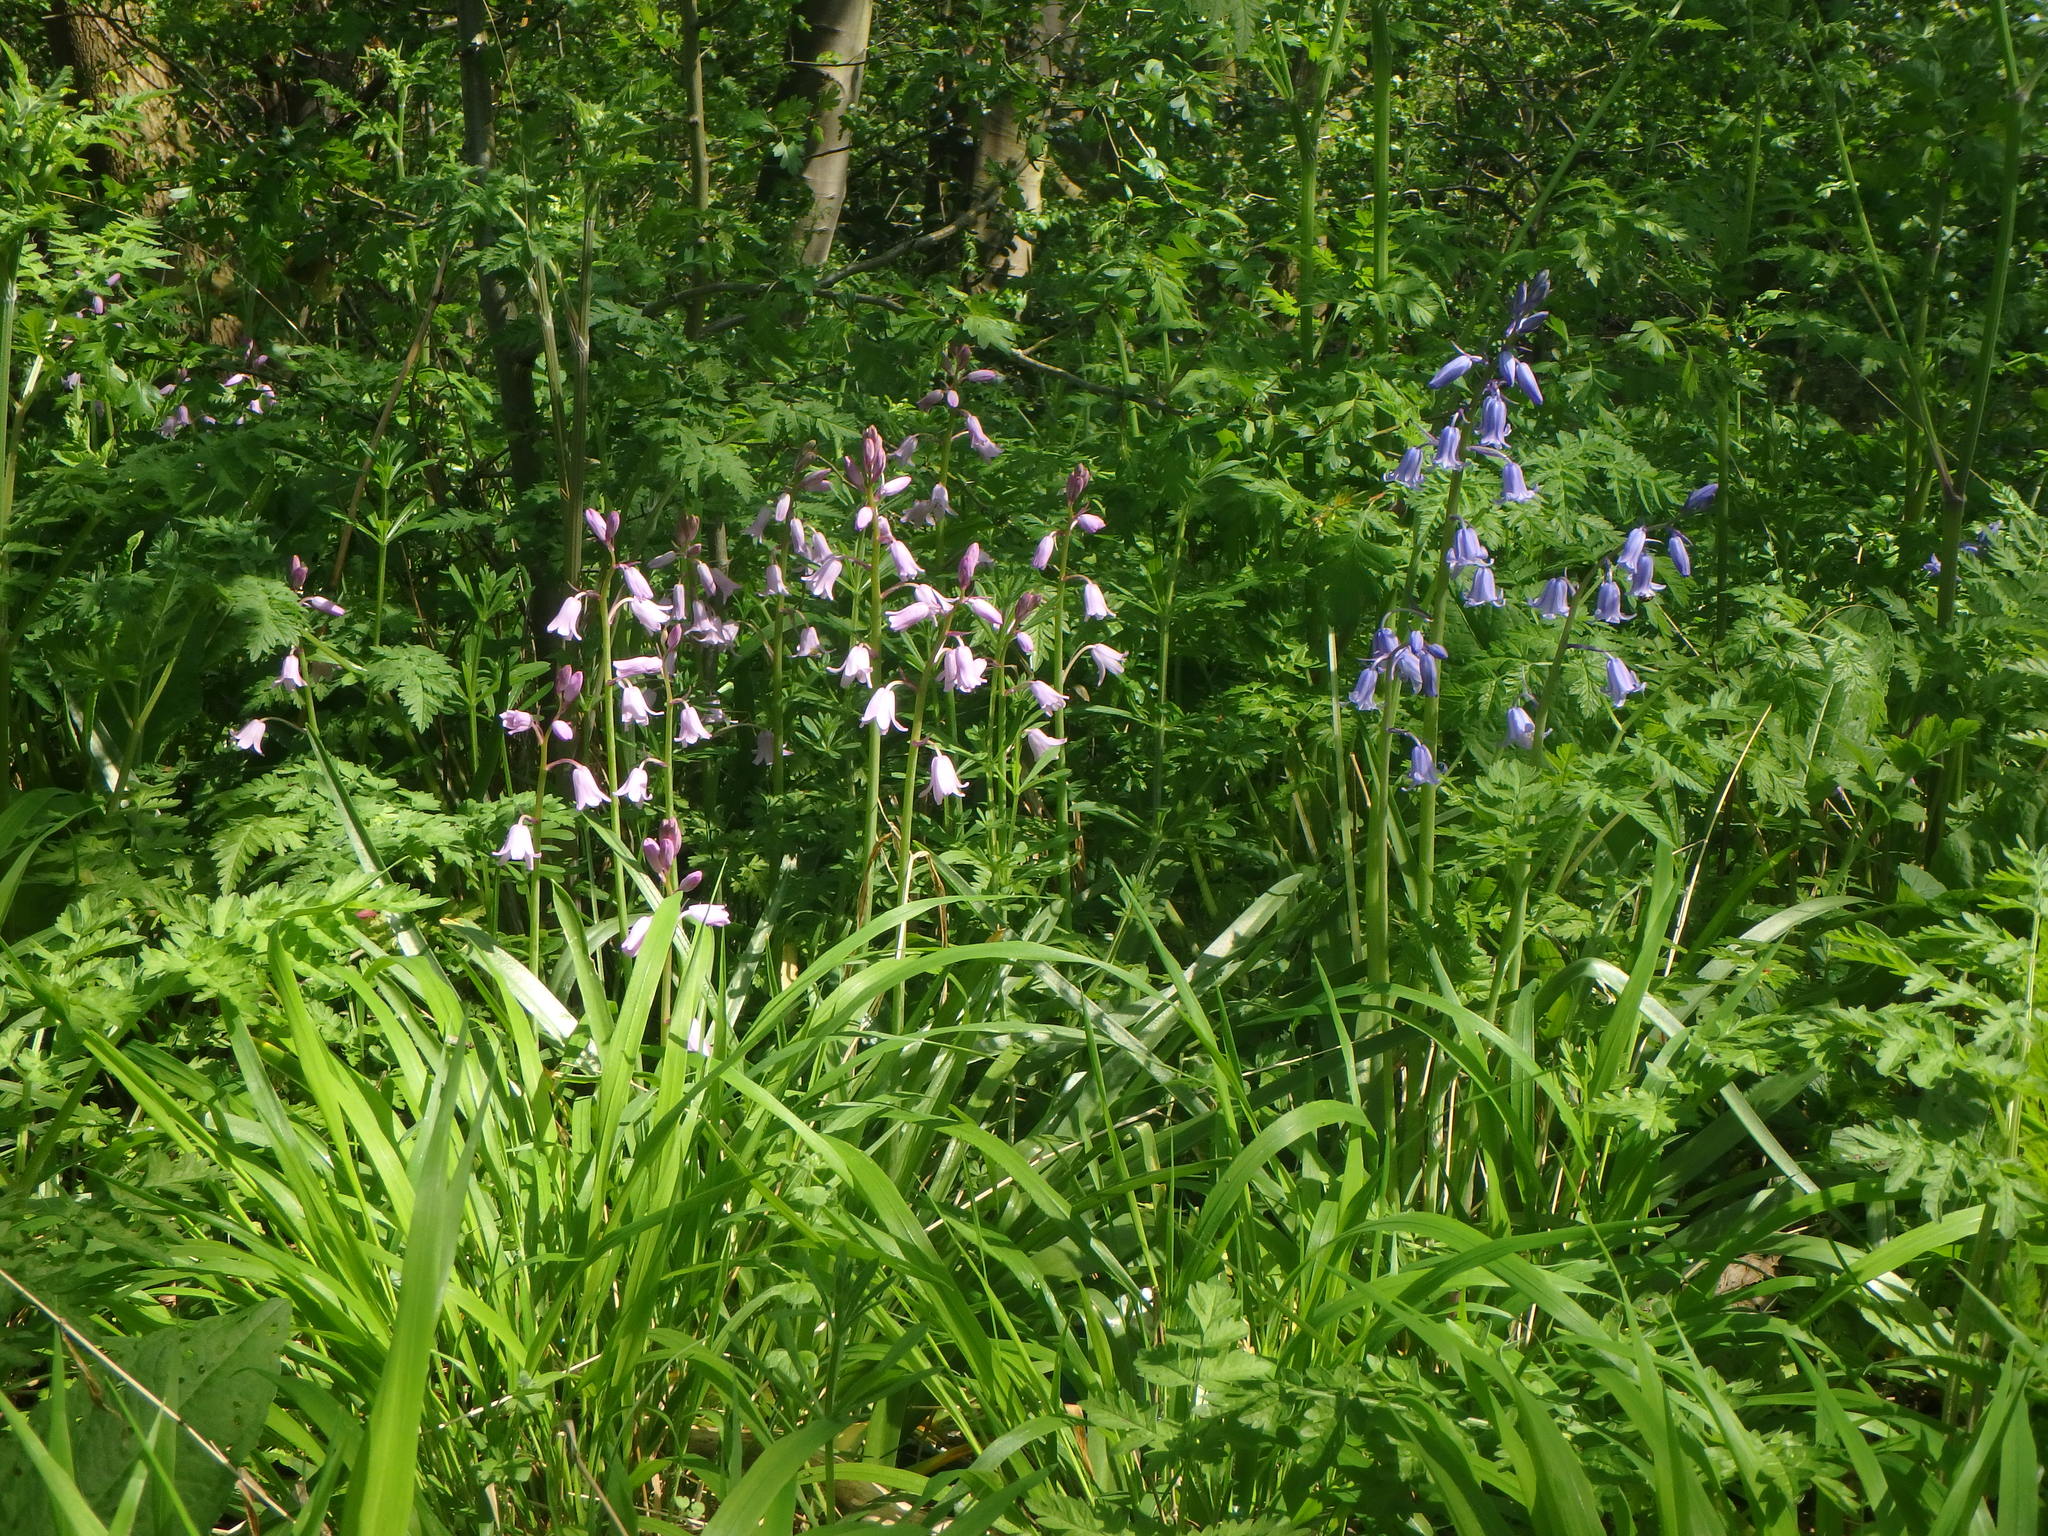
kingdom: Plantae
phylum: Tracheophyta
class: Liliopsida
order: Asparagales
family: Asparagaceae
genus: Hyacinthoides
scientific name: Hyacinthoides massartiana
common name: Hyacinthoides
